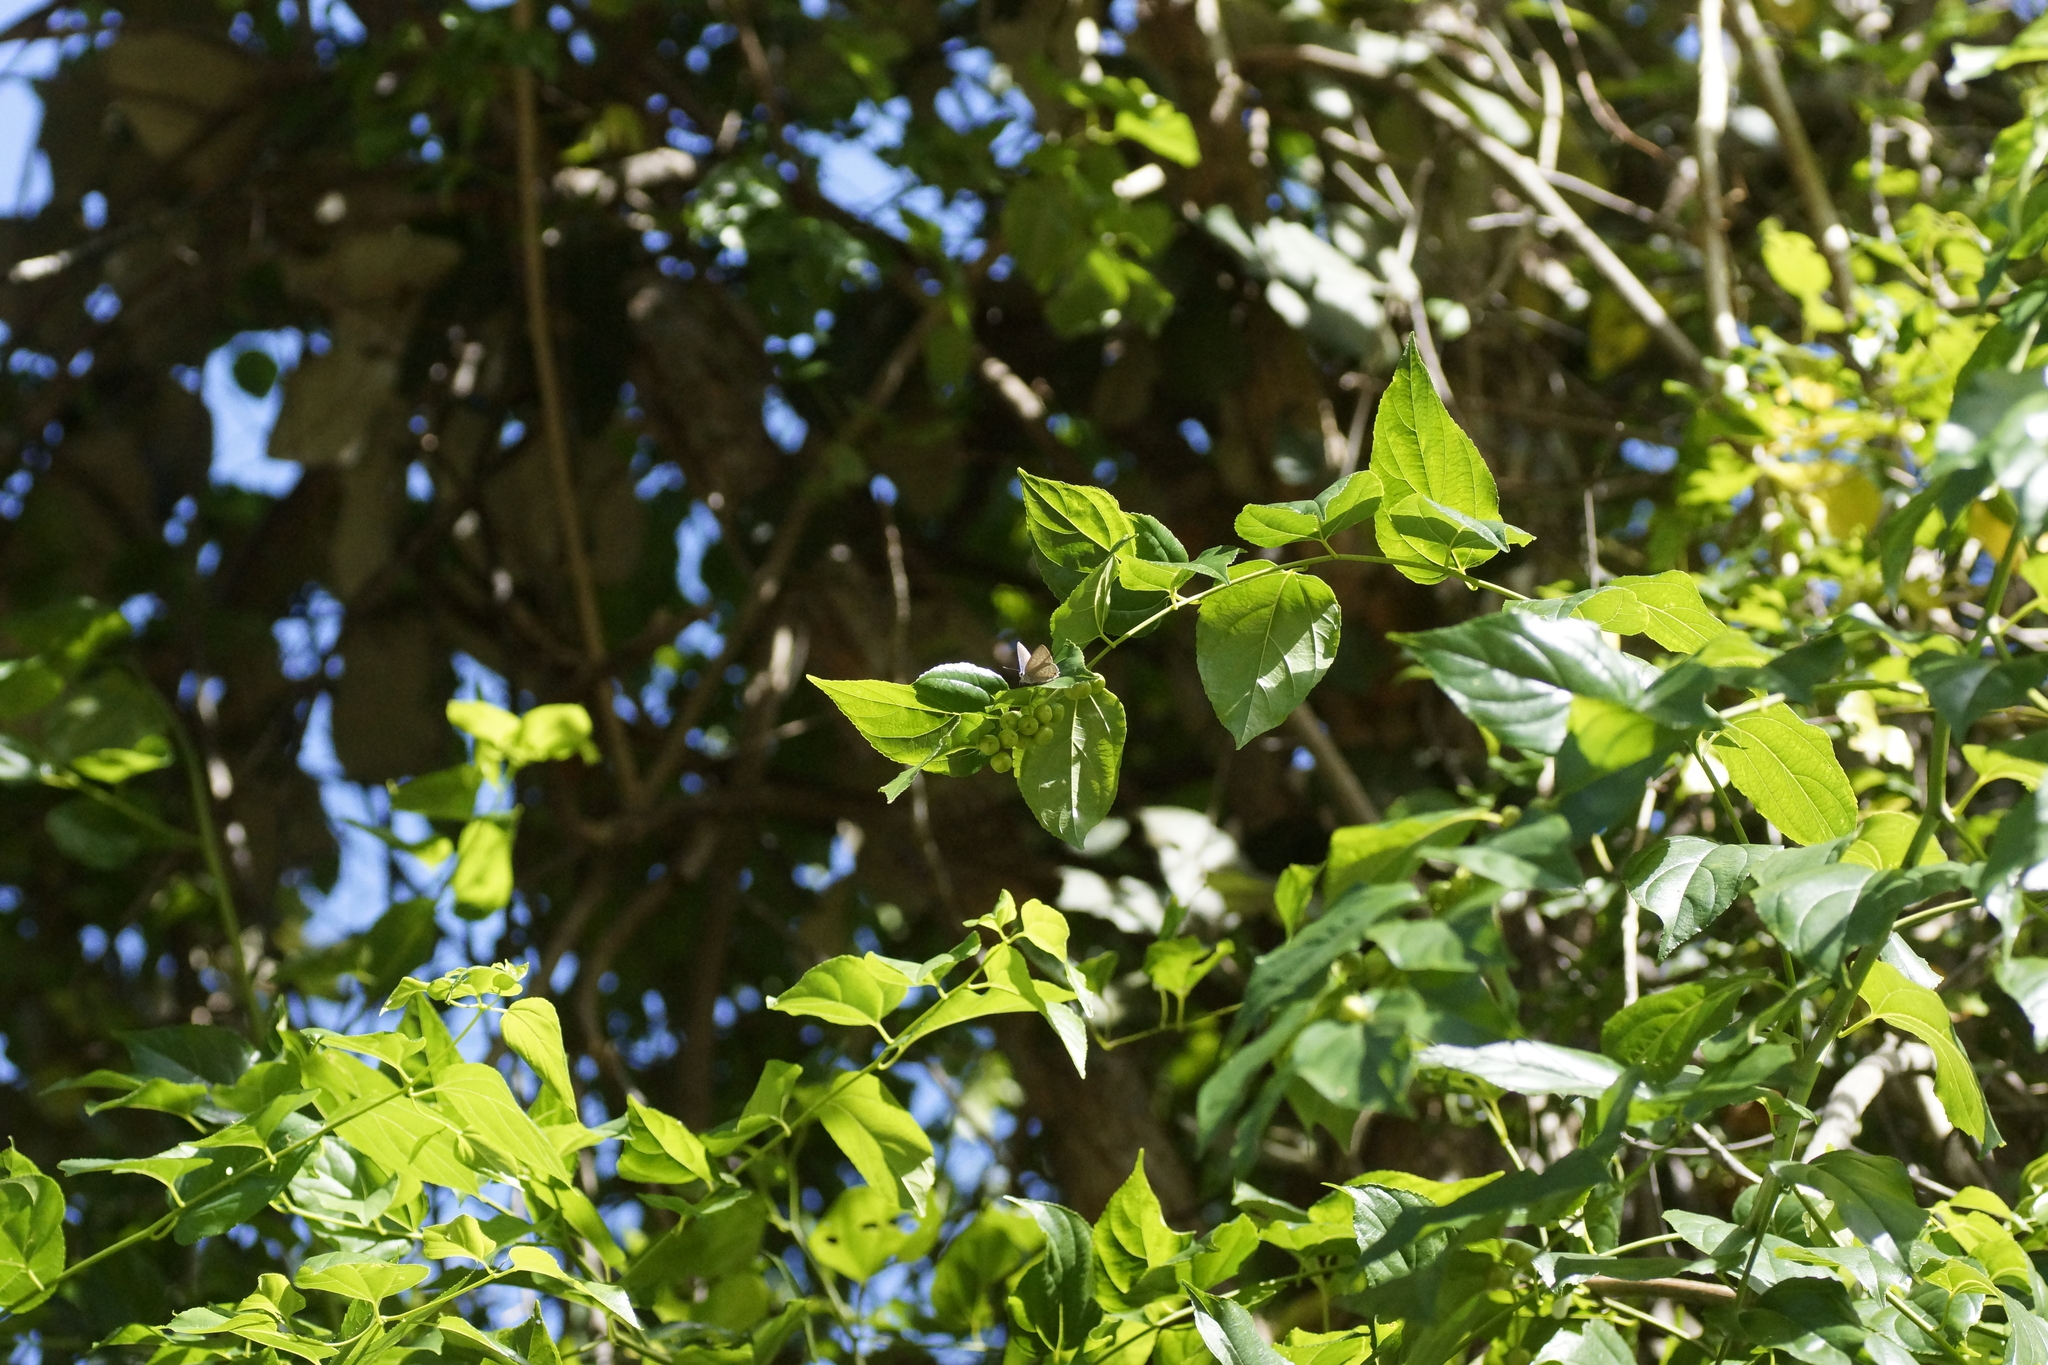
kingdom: Animalia
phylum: Arthropoda
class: Insecta
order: Lepidoptera
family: Lycaenidae
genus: Anthene
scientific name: Anthene seltuttus
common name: Dark ciliated-blue
